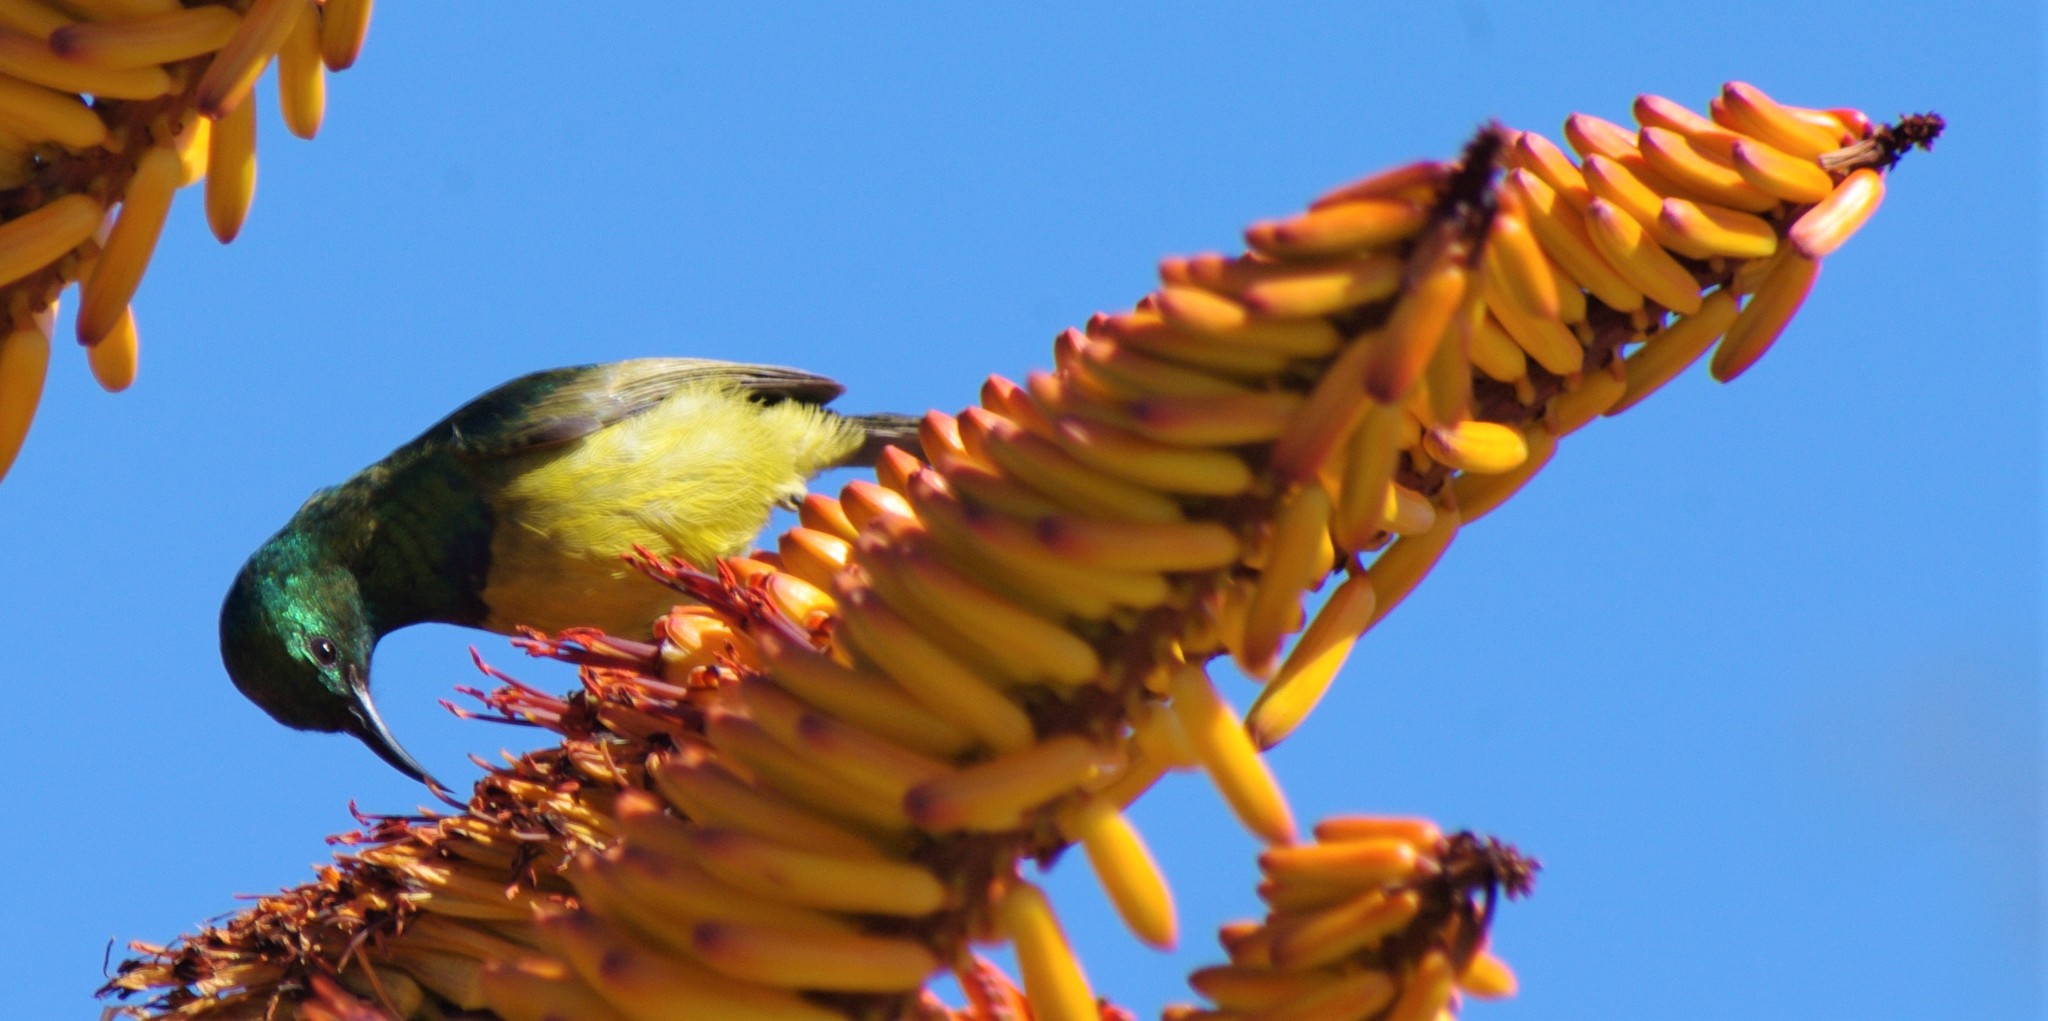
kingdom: Animalia
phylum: Chordata
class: Aves
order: Passeriformes
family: Nectariniidae
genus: Hedydipna
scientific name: Hedydipna collaris
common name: Collared sunbird
